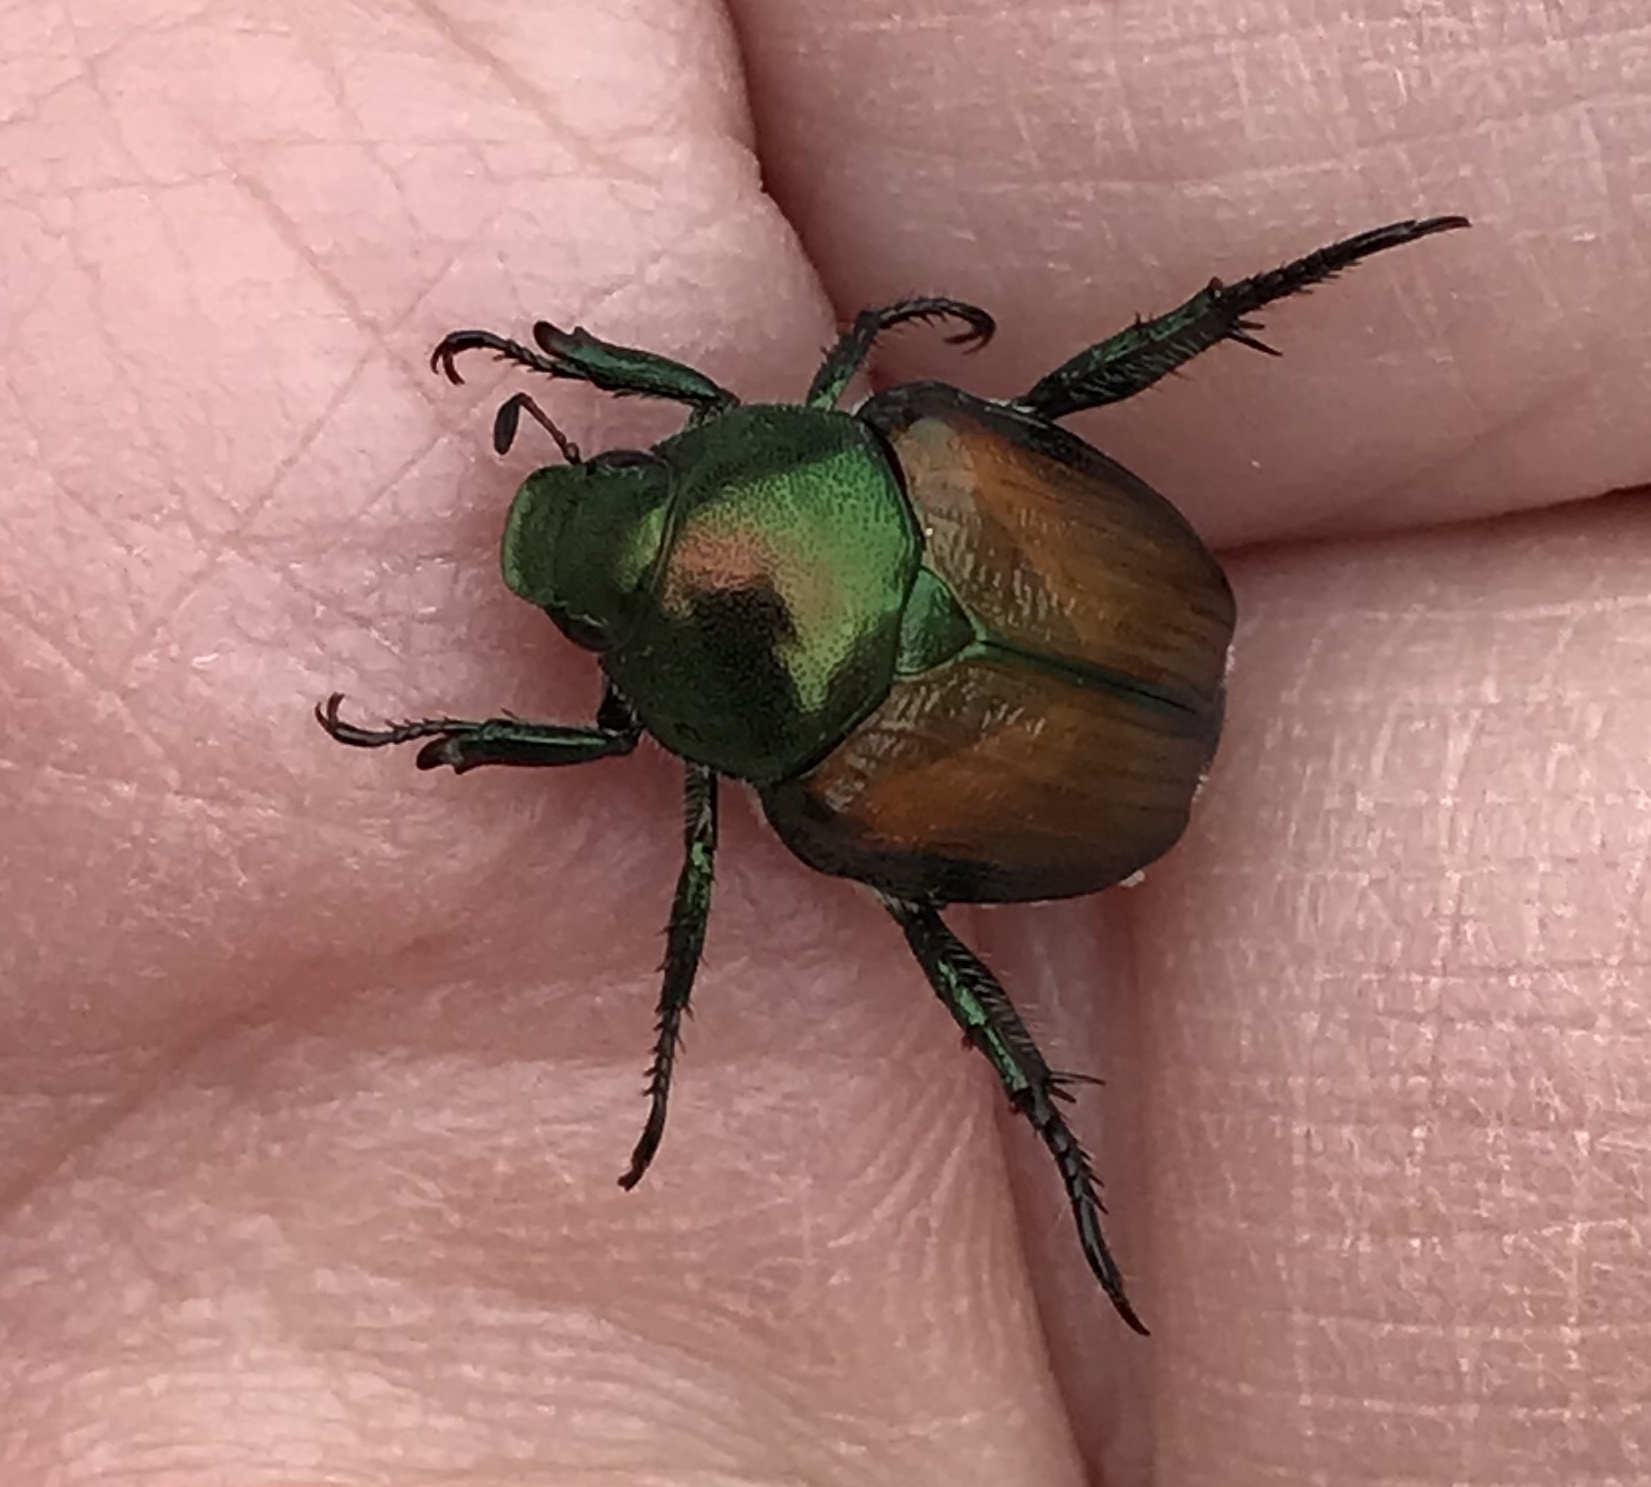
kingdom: Animalia
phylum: Arthropoda
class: Insecta
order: Coleoptera
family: Scarabaeidae
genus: Popillia
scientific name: Popillia japonica
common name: Japanese beetle
